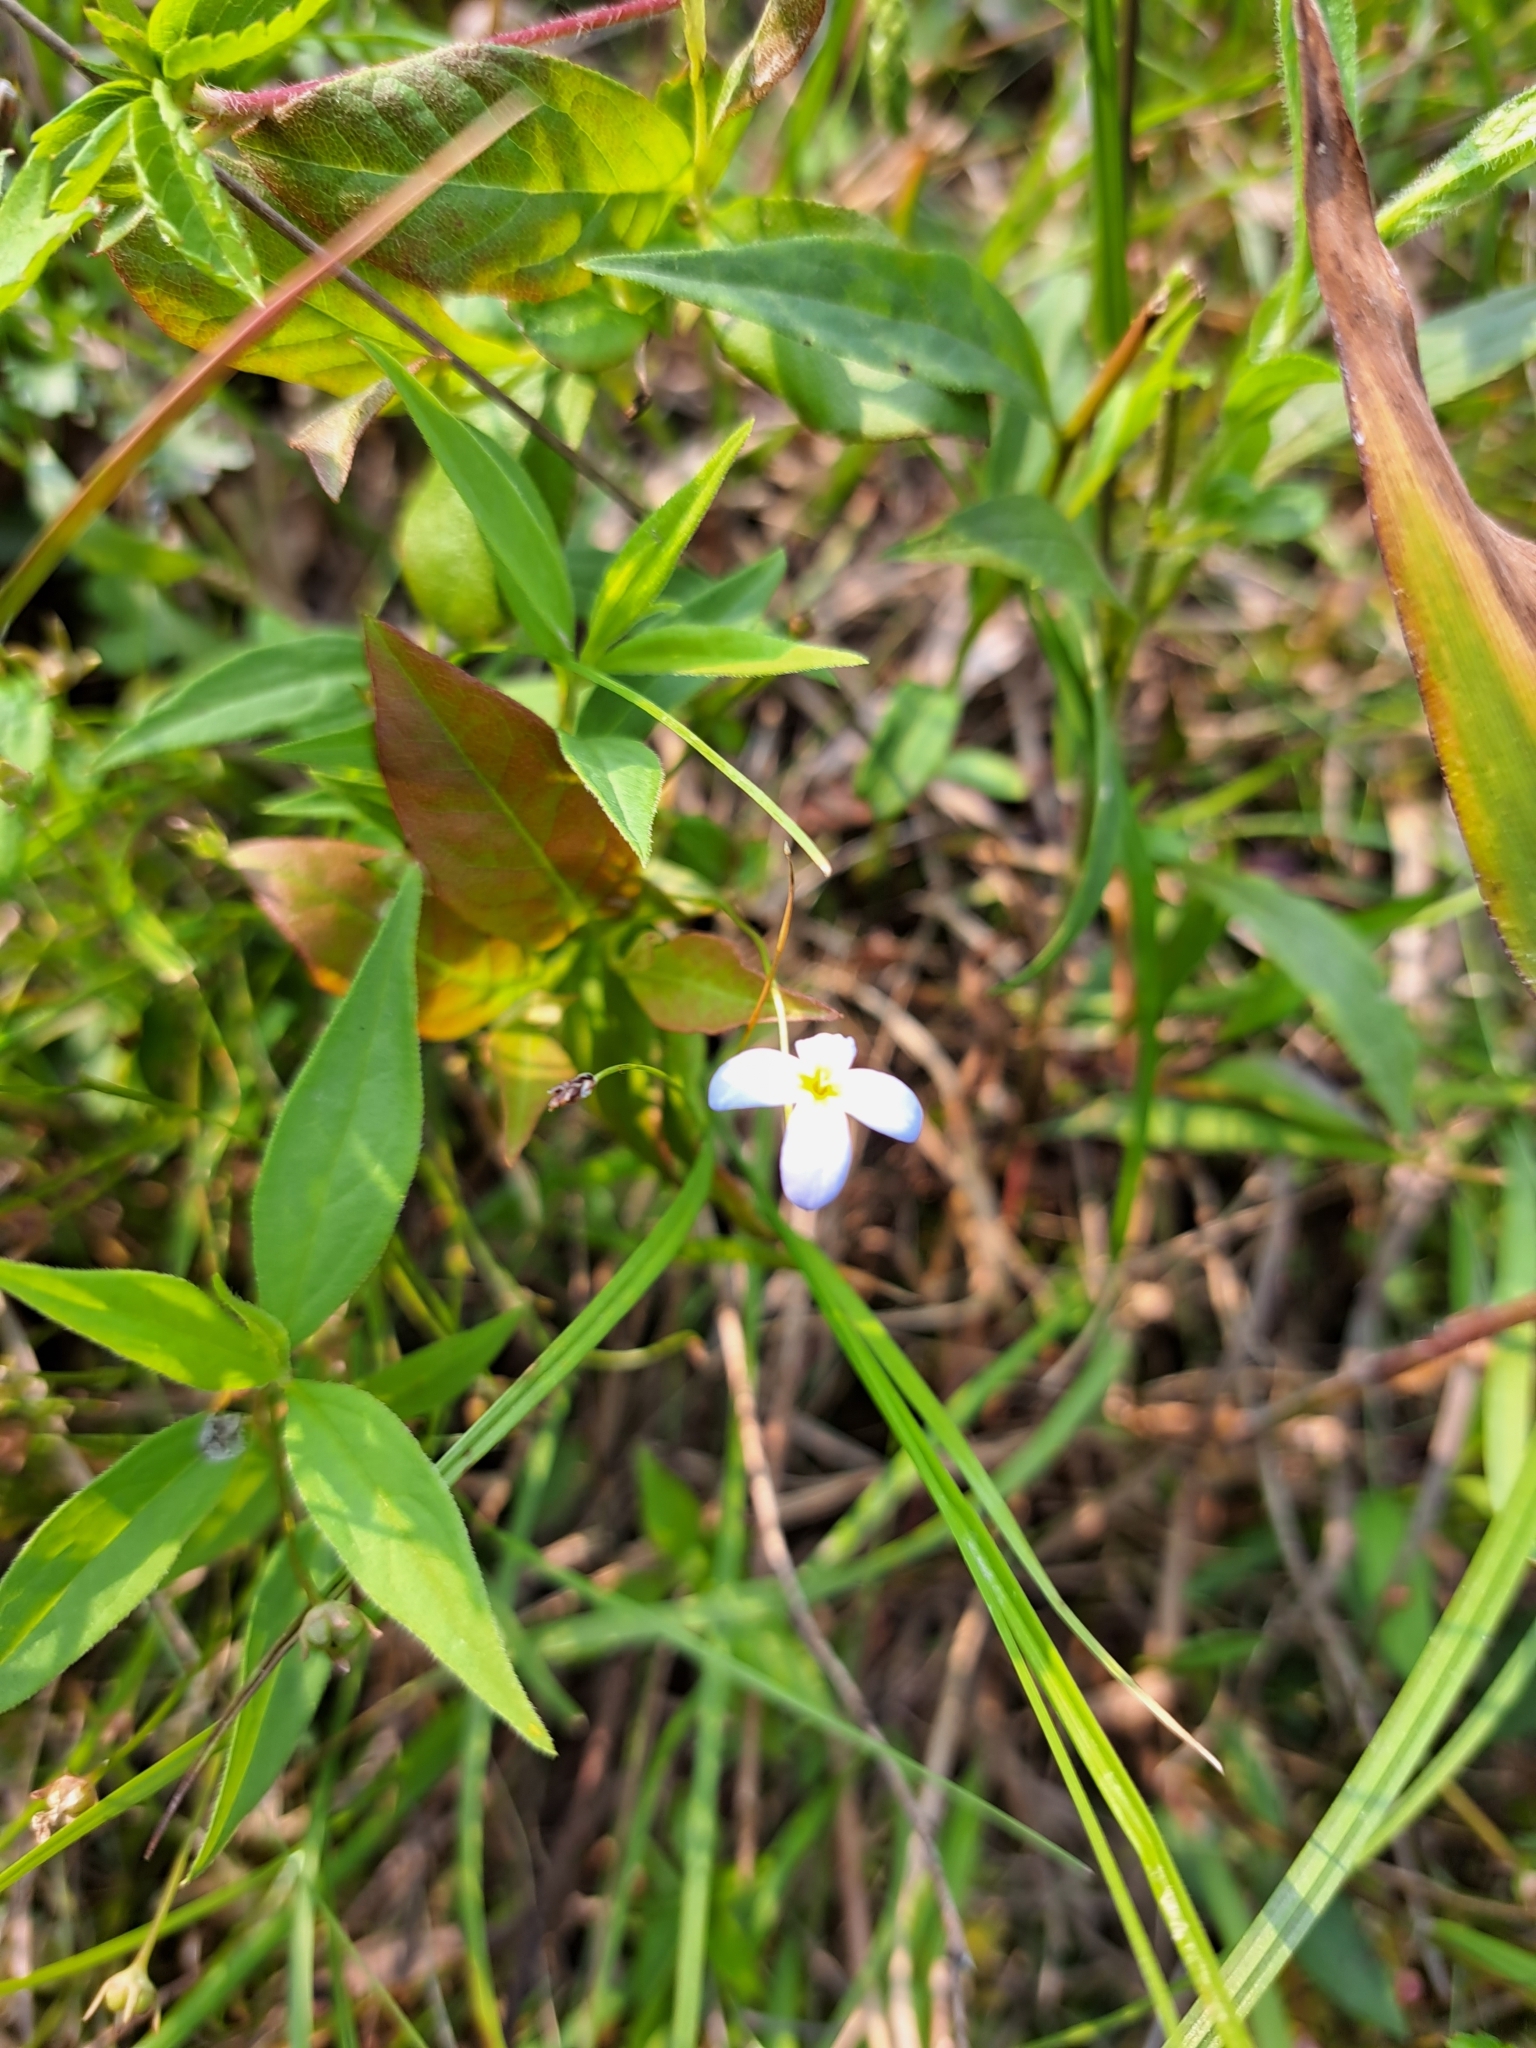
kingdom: Plantae
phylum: Tracheophyta
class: Magnoliopsida
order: Gentianales
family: Rubiaceae
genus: Houstonia
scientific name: Houstonia caerulea
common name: Bluets
